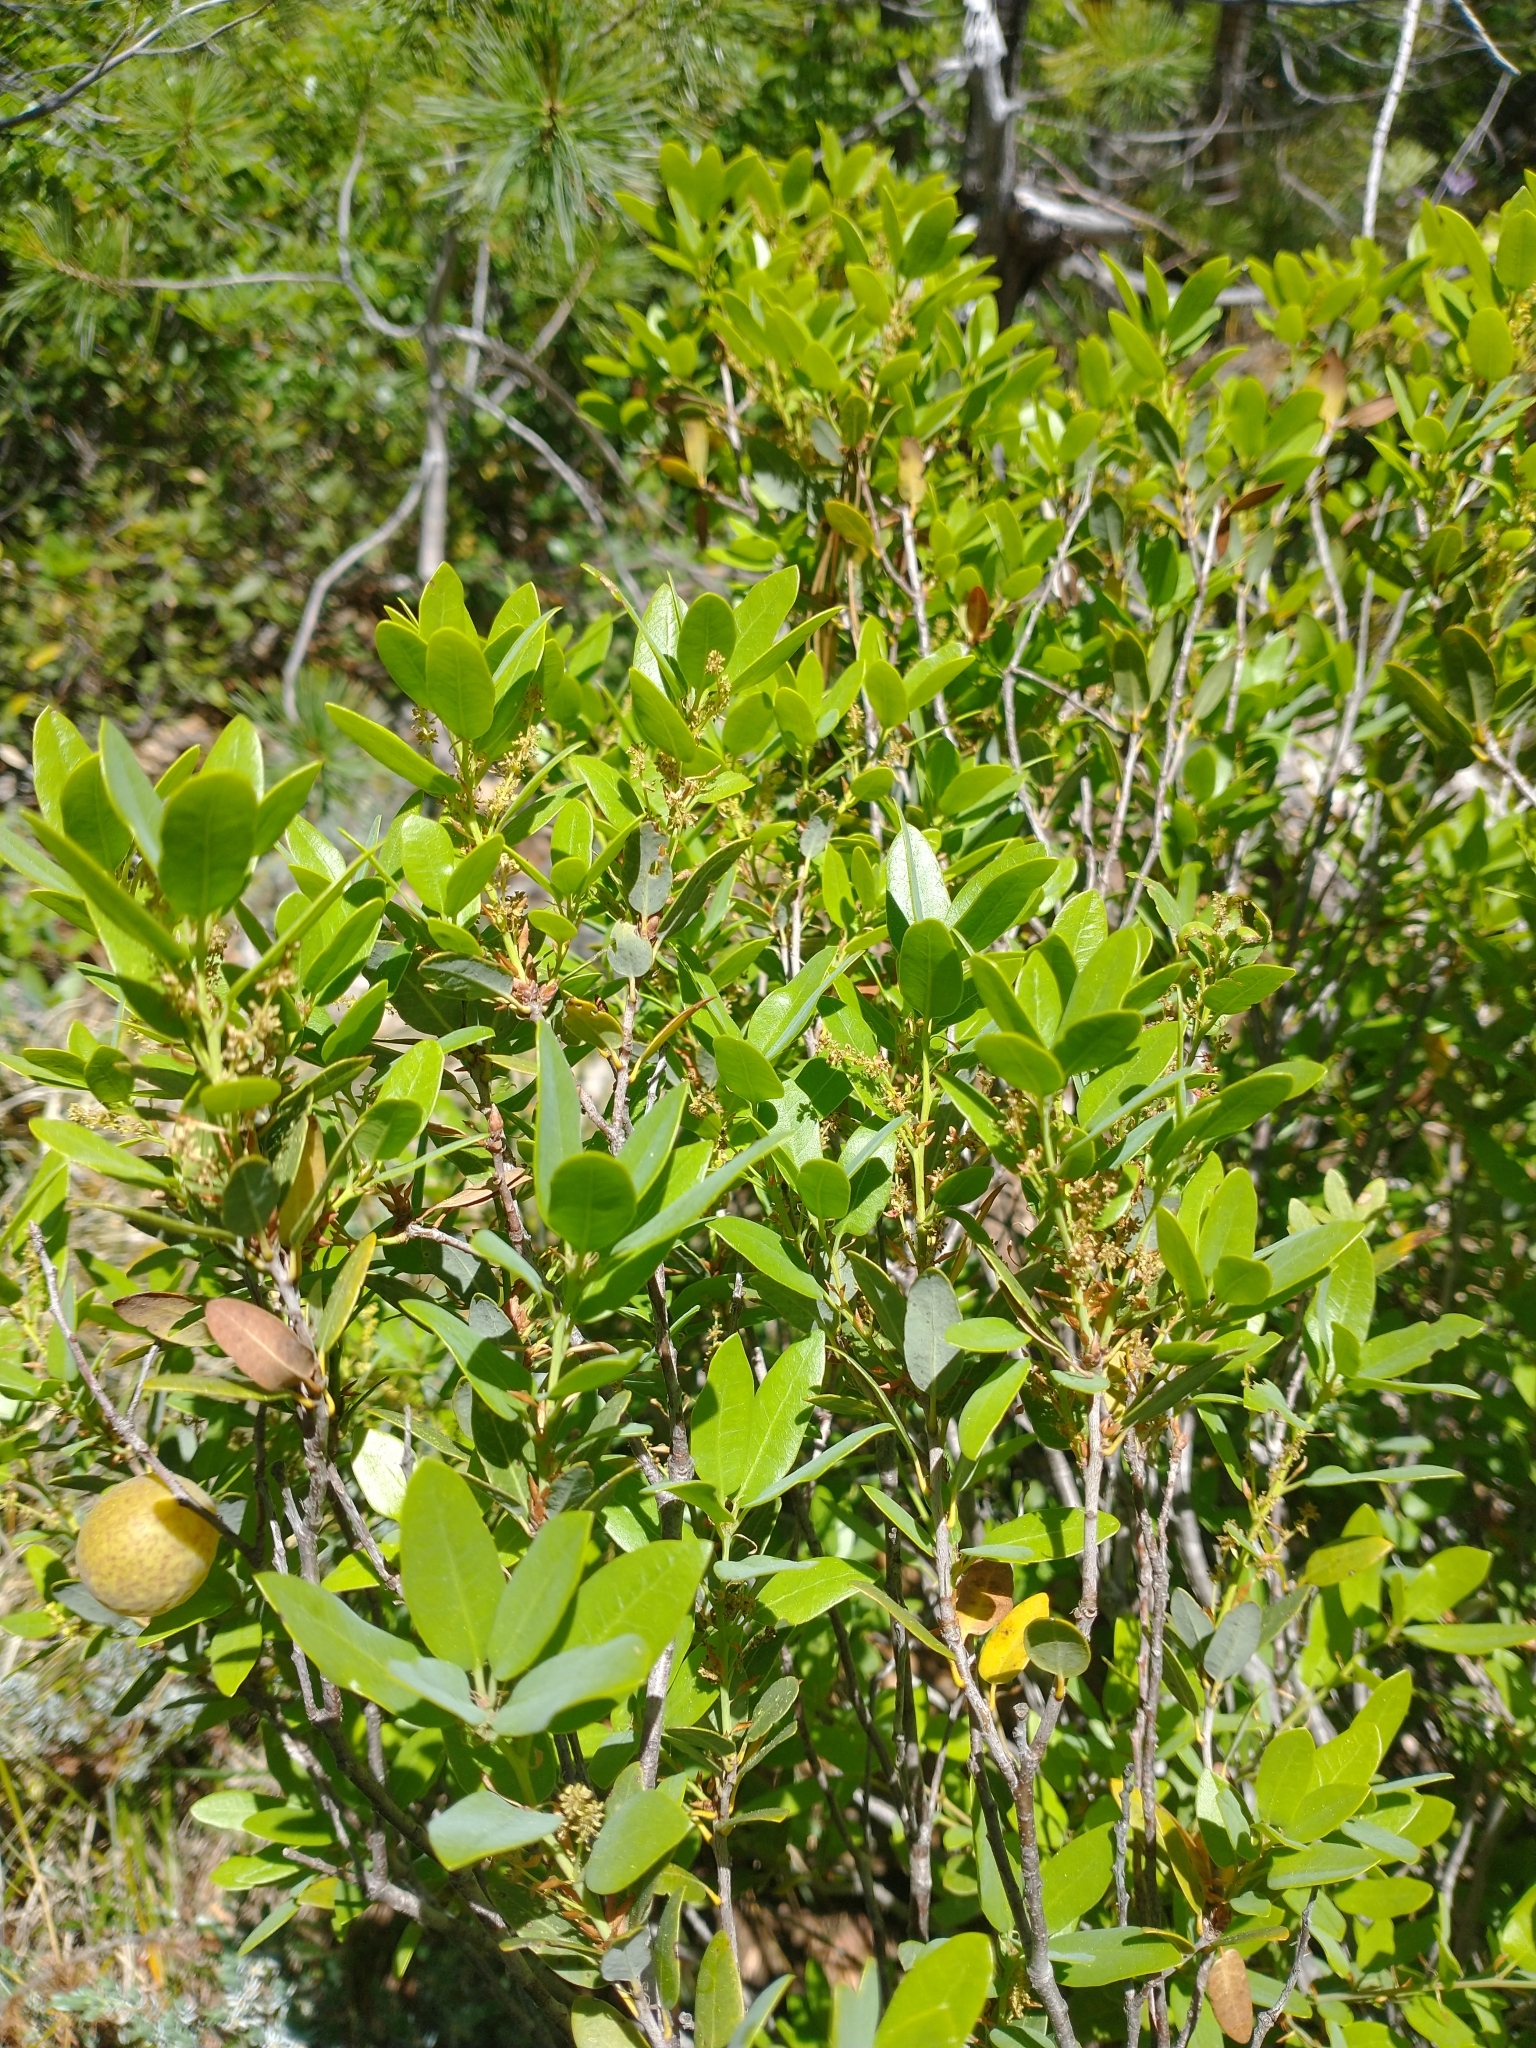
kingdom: Animalia
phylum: Arthropoda
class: Insecta
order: Hymenoptera
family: Cynipidae
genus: Andricus
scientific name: Andricus
